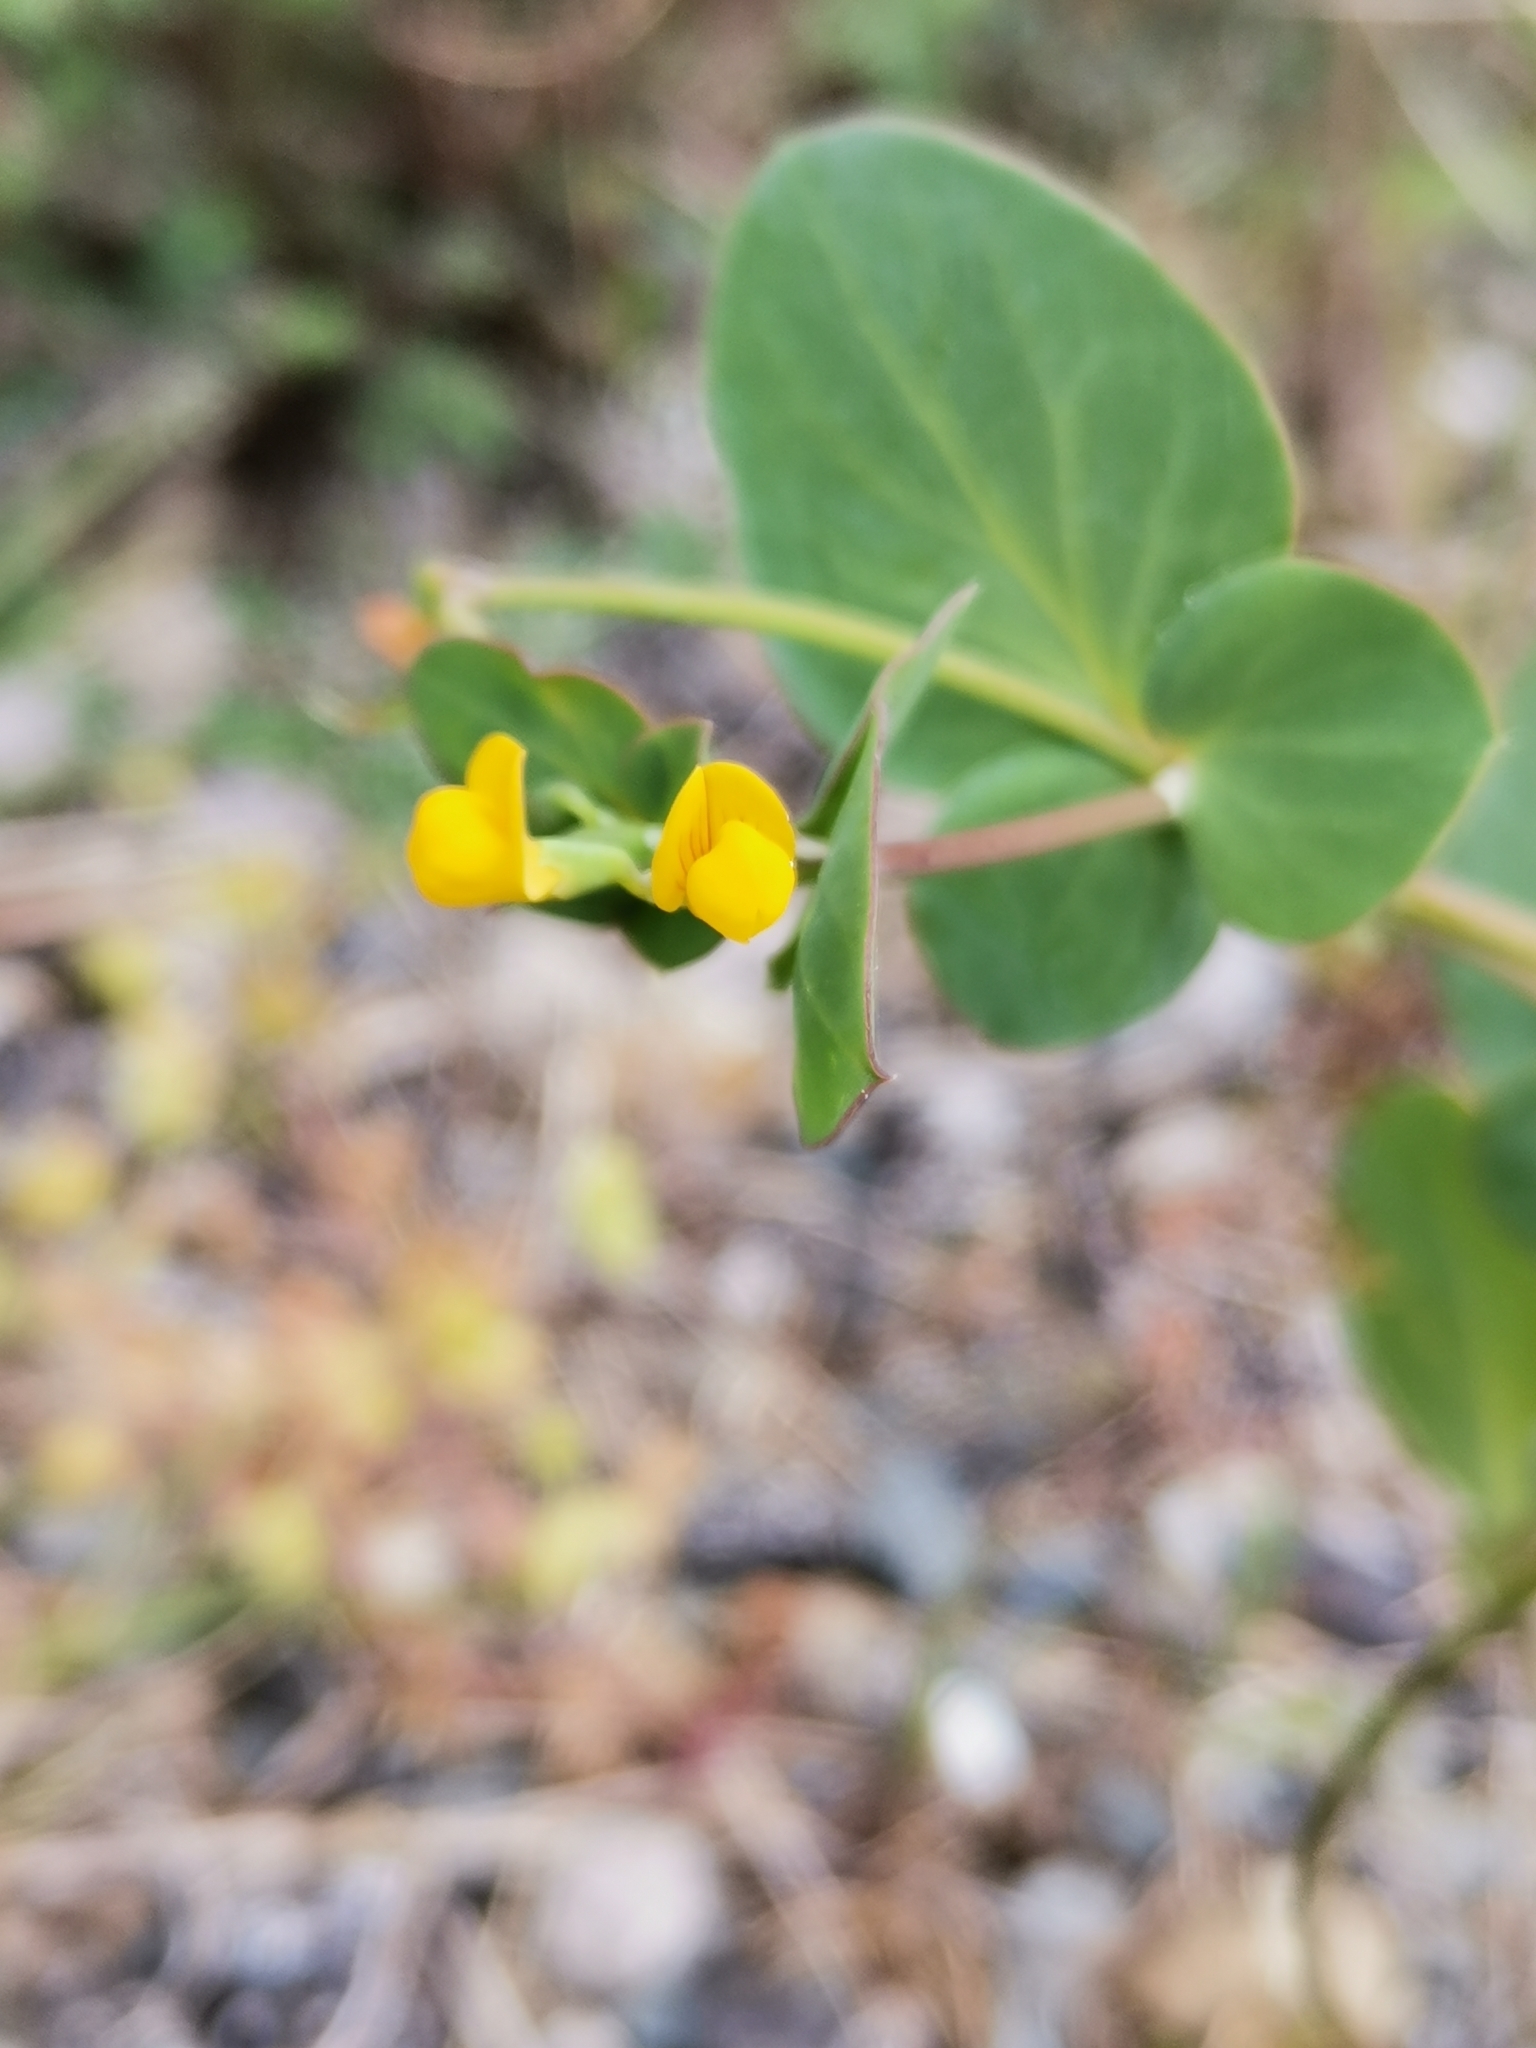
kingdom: Plantae
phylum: Tracheophyta
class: Magnoliopsida
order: Fabales
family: Fabaceae
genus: Coronilla
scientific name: Coronilla scorpioides
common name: Annual scorpion-vetch
